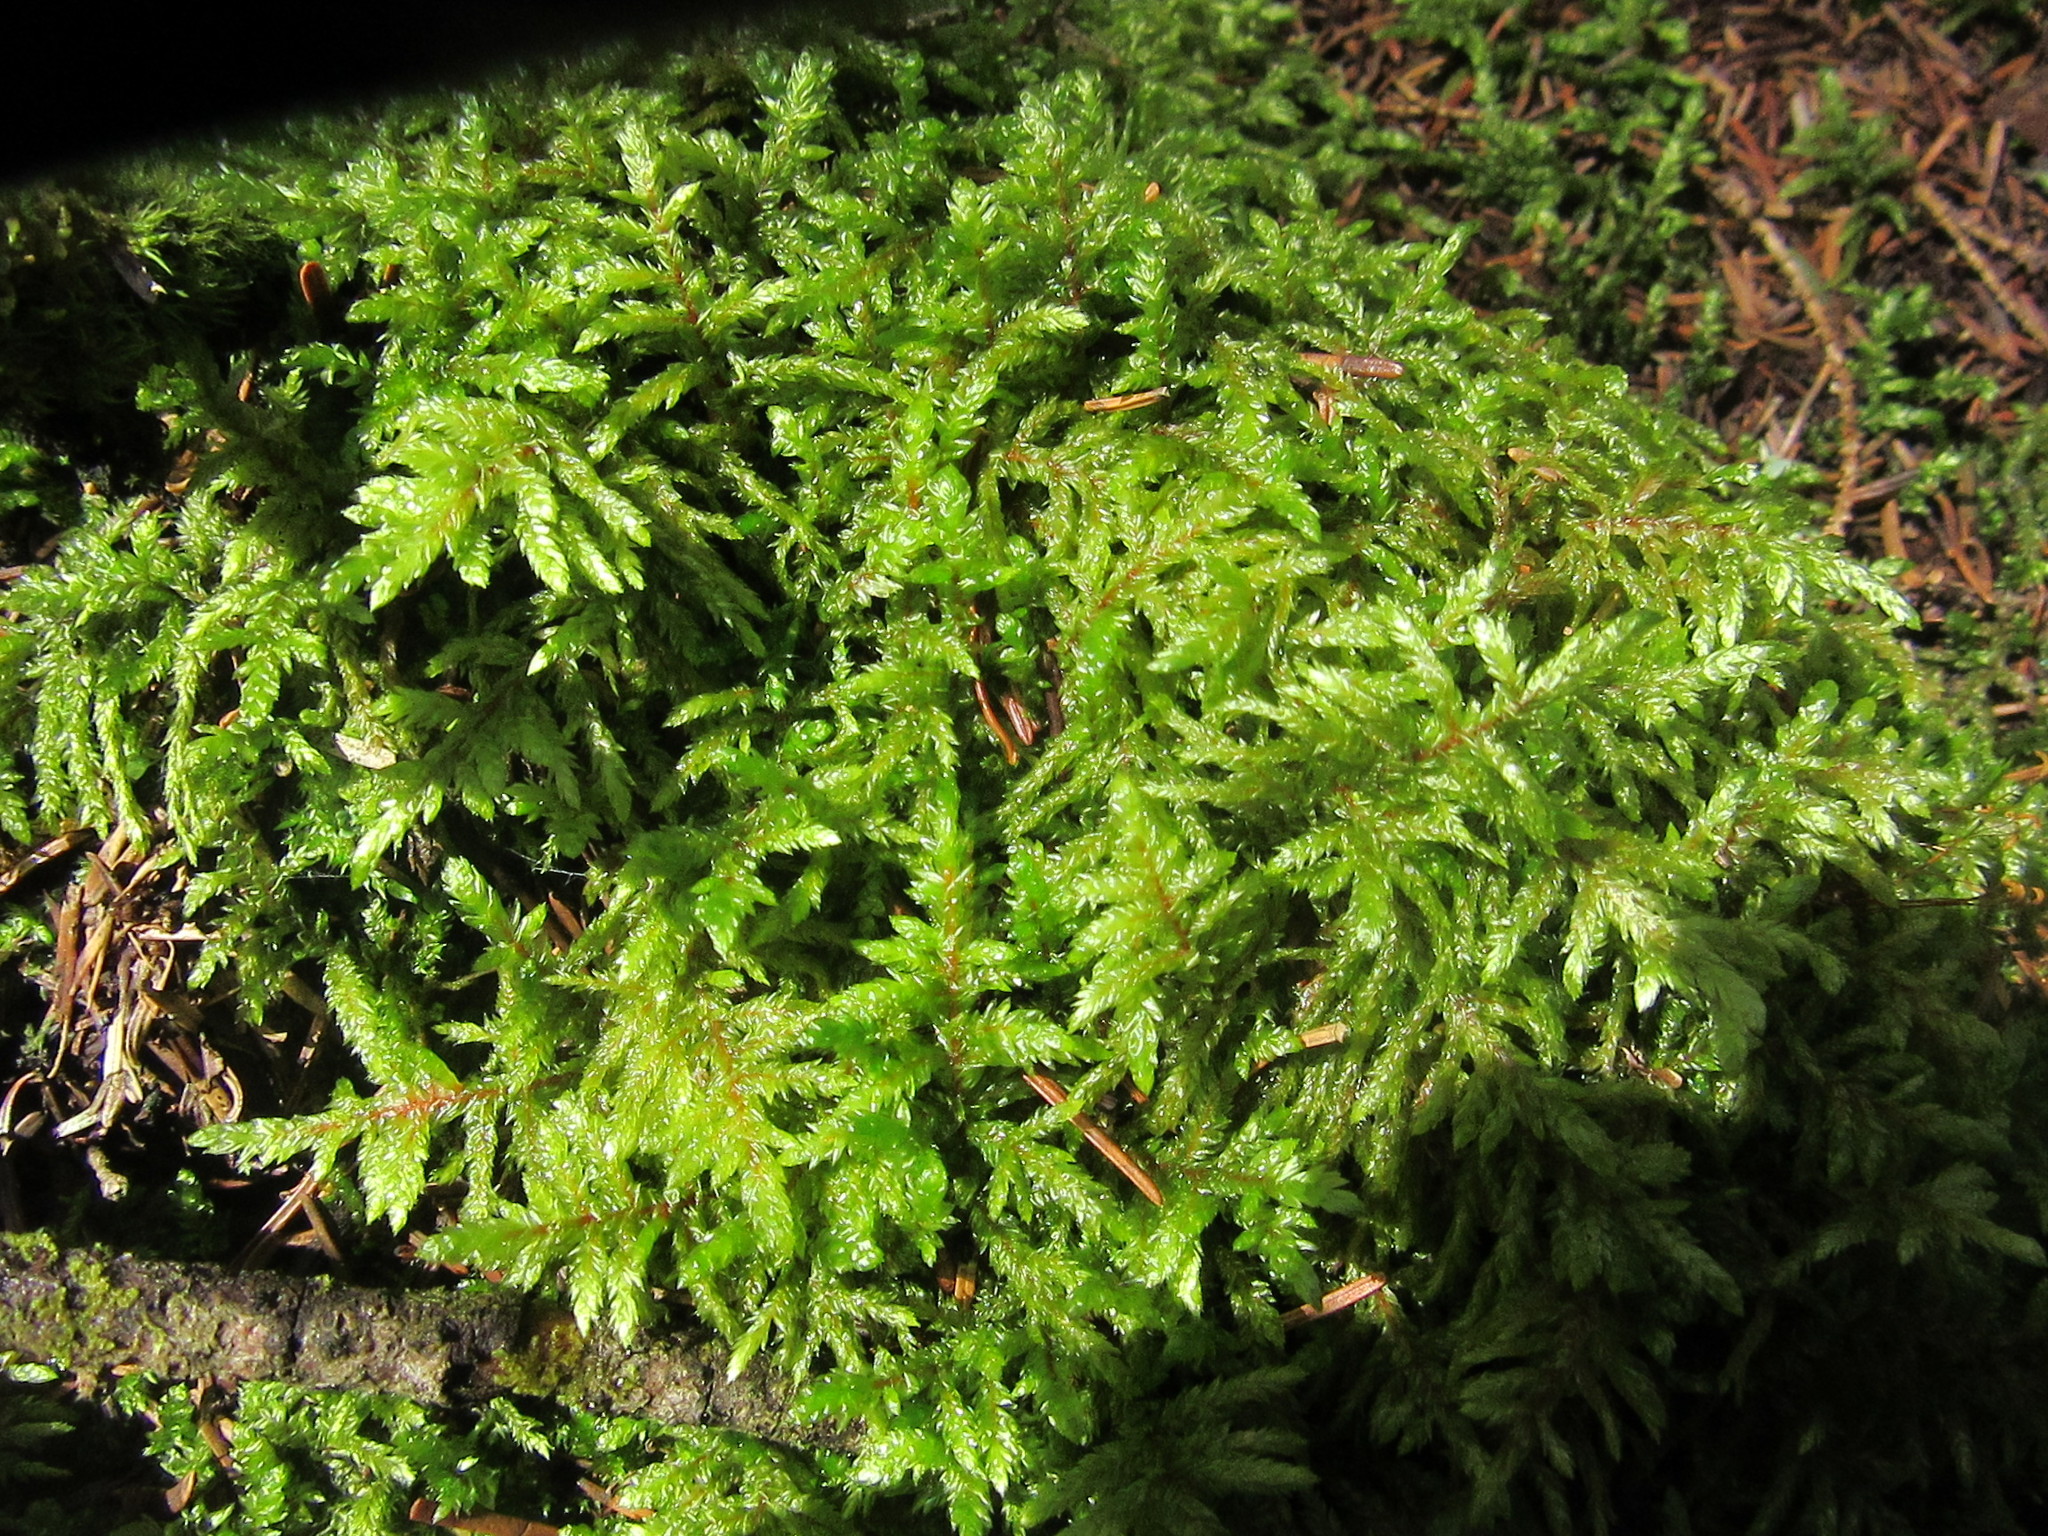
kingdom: Plantae
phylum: Bryophyta
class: Bryopsida
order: Hypnales
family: Hylocomiaceae
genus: Pleurozium
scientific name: Pleurozium schreberi
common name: Red-stemmed feather moss
